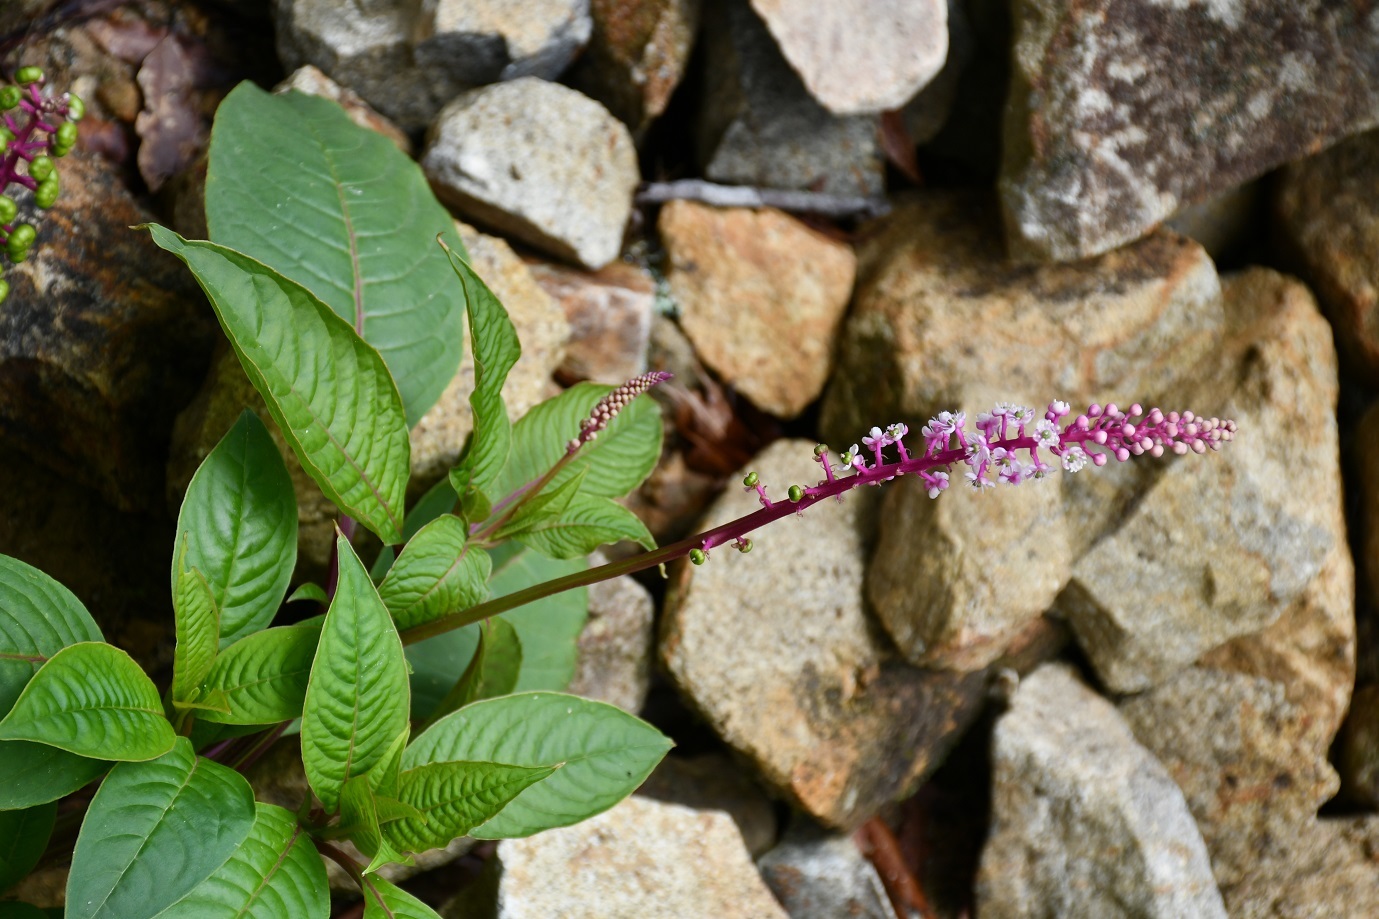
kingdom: Plantae
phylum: Tracheophyta
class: Magnoliopsida
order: Caryophyllales
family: Phytolaccaceae
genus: Phytolacca
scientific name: Phytolacca icosandra
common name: Button pokeweed
